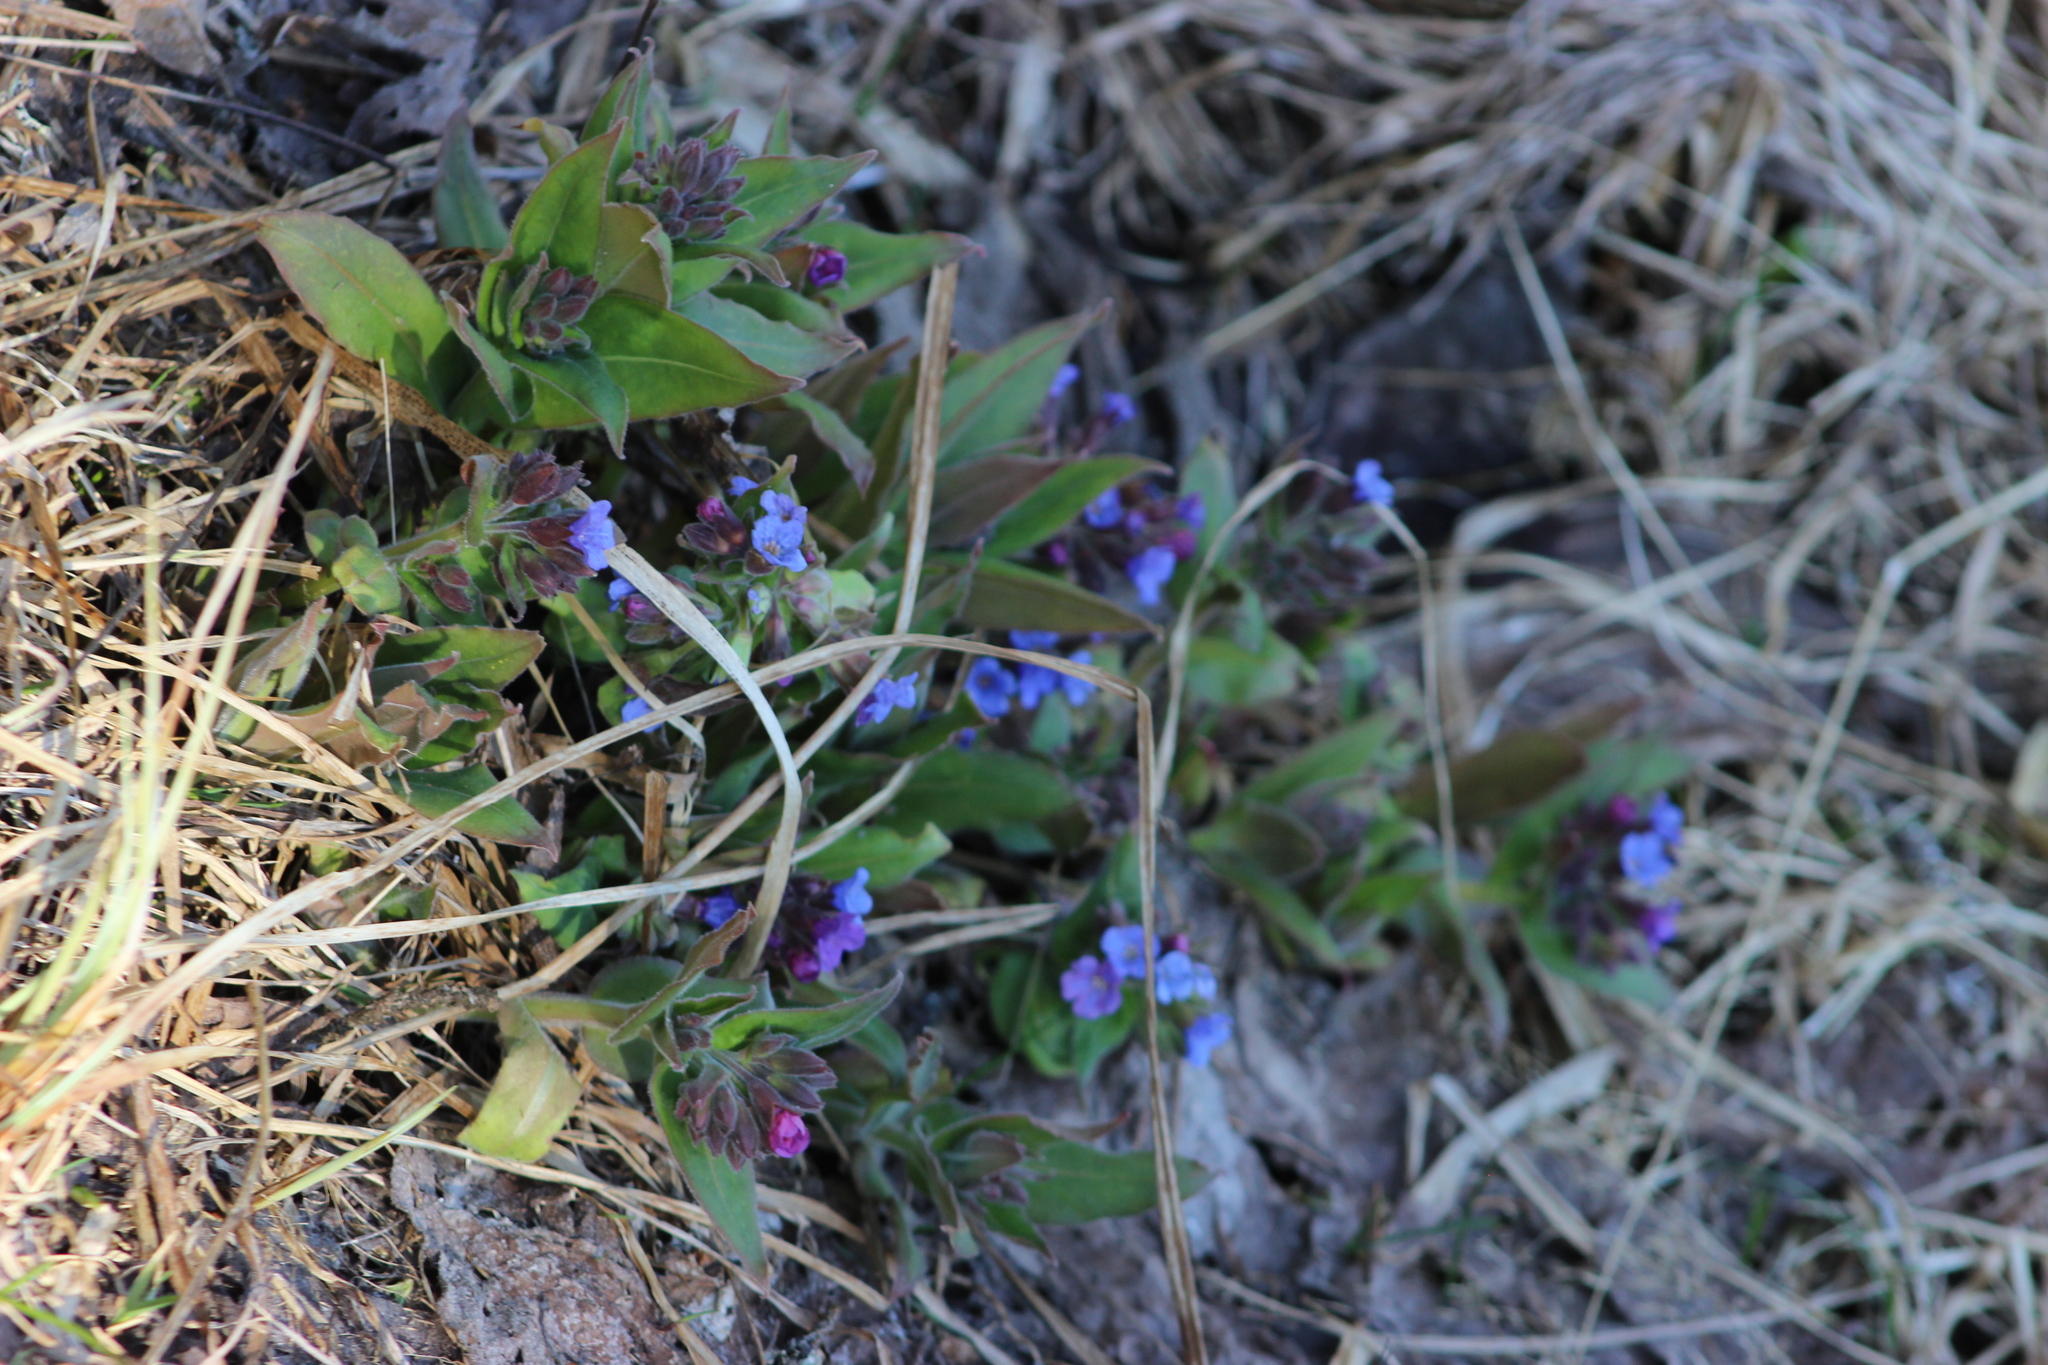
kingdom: Plantae
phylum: Tracheophyta
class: Magnoliopsida
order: Boraginales
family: Boraginaceae
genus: Pulmonaria
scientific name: Pulmonaria mollis
